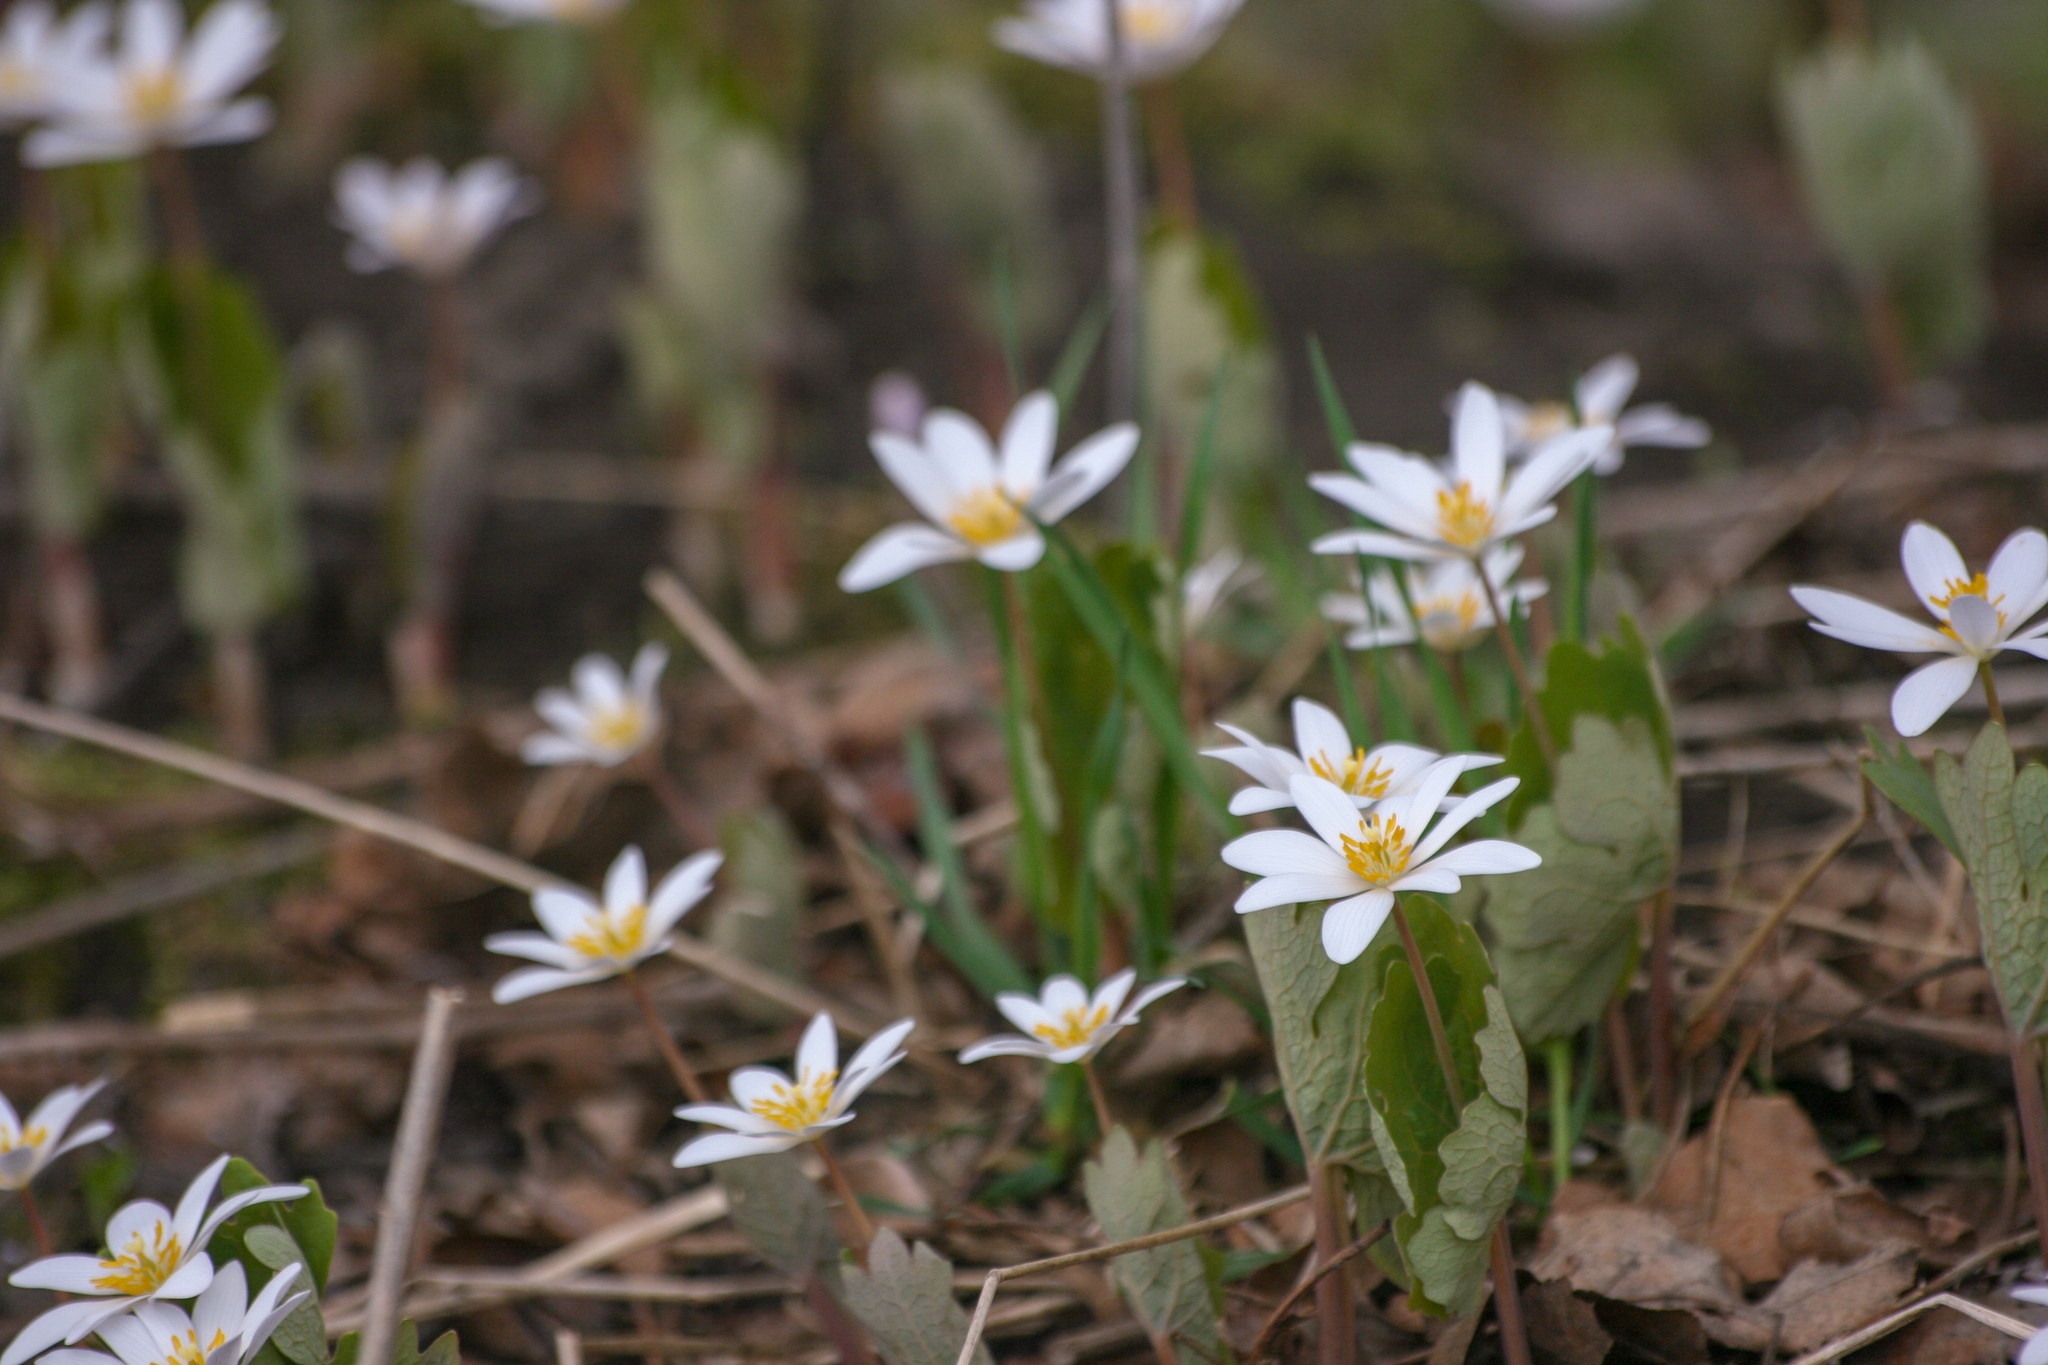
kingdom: Plantae
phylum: Tracheophyta
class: Magnoliopsida
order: Ranunculales
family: Papaveraceae
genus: Sanguinaria
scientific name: Sanguinaria canadensis
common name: Bloodroot
